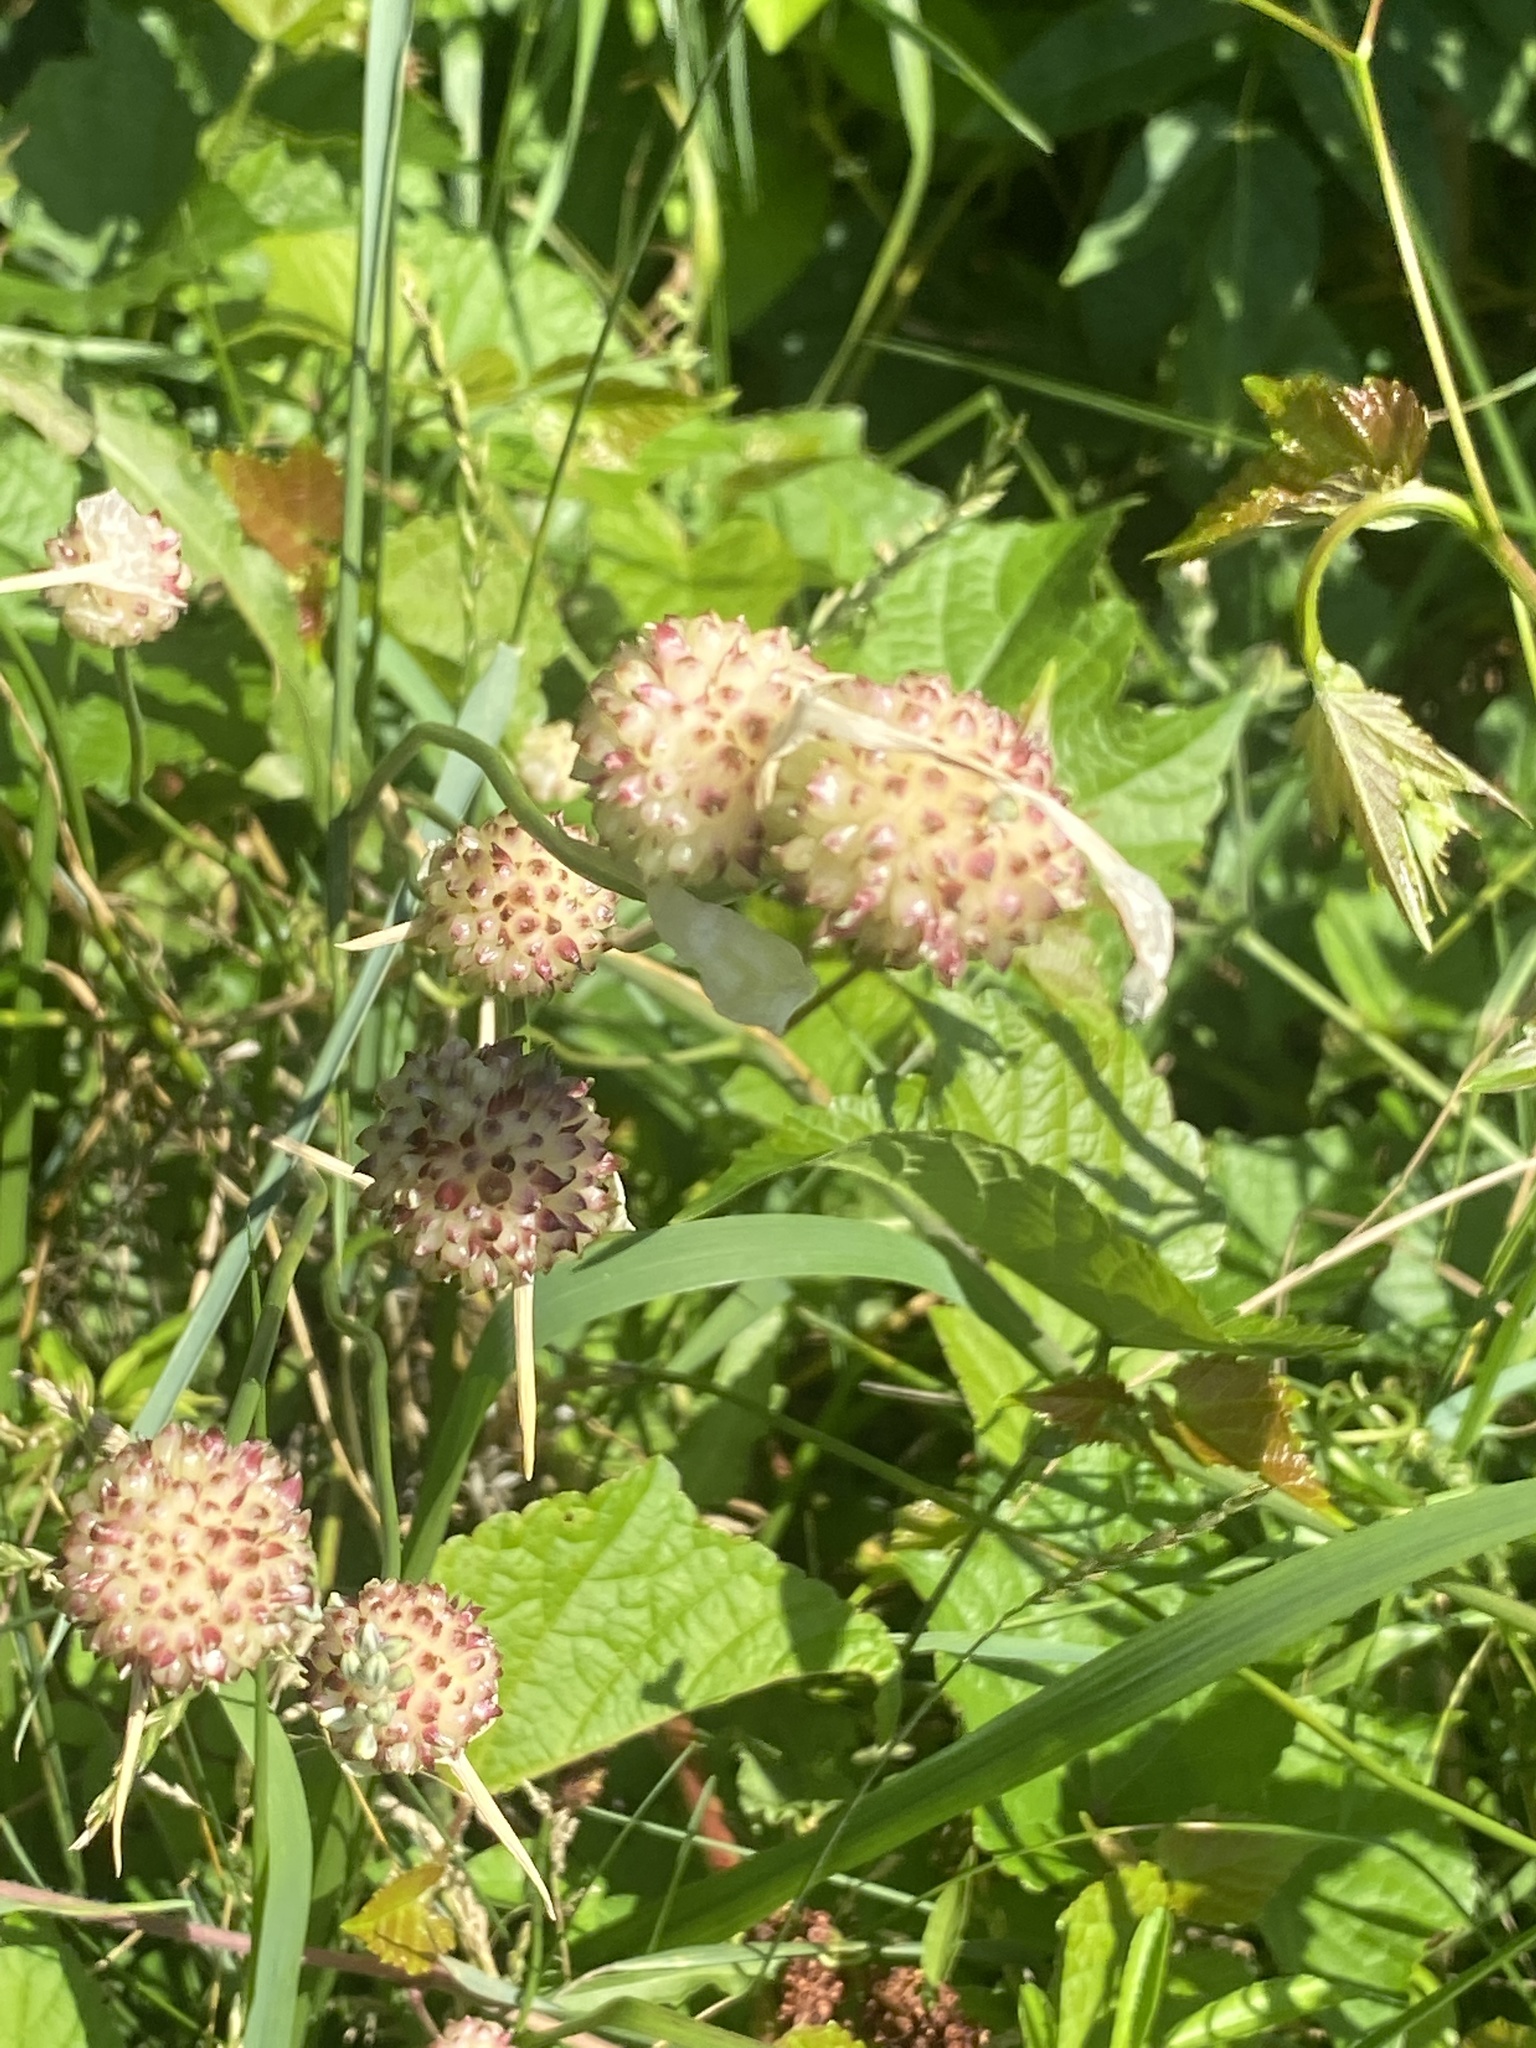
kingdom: Plantae
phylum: Tracheophyta
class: Liliopsida
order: Asparagales
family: Amaryllidaceae
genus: Allium
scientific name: Allium vineale
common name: Crow garlic
